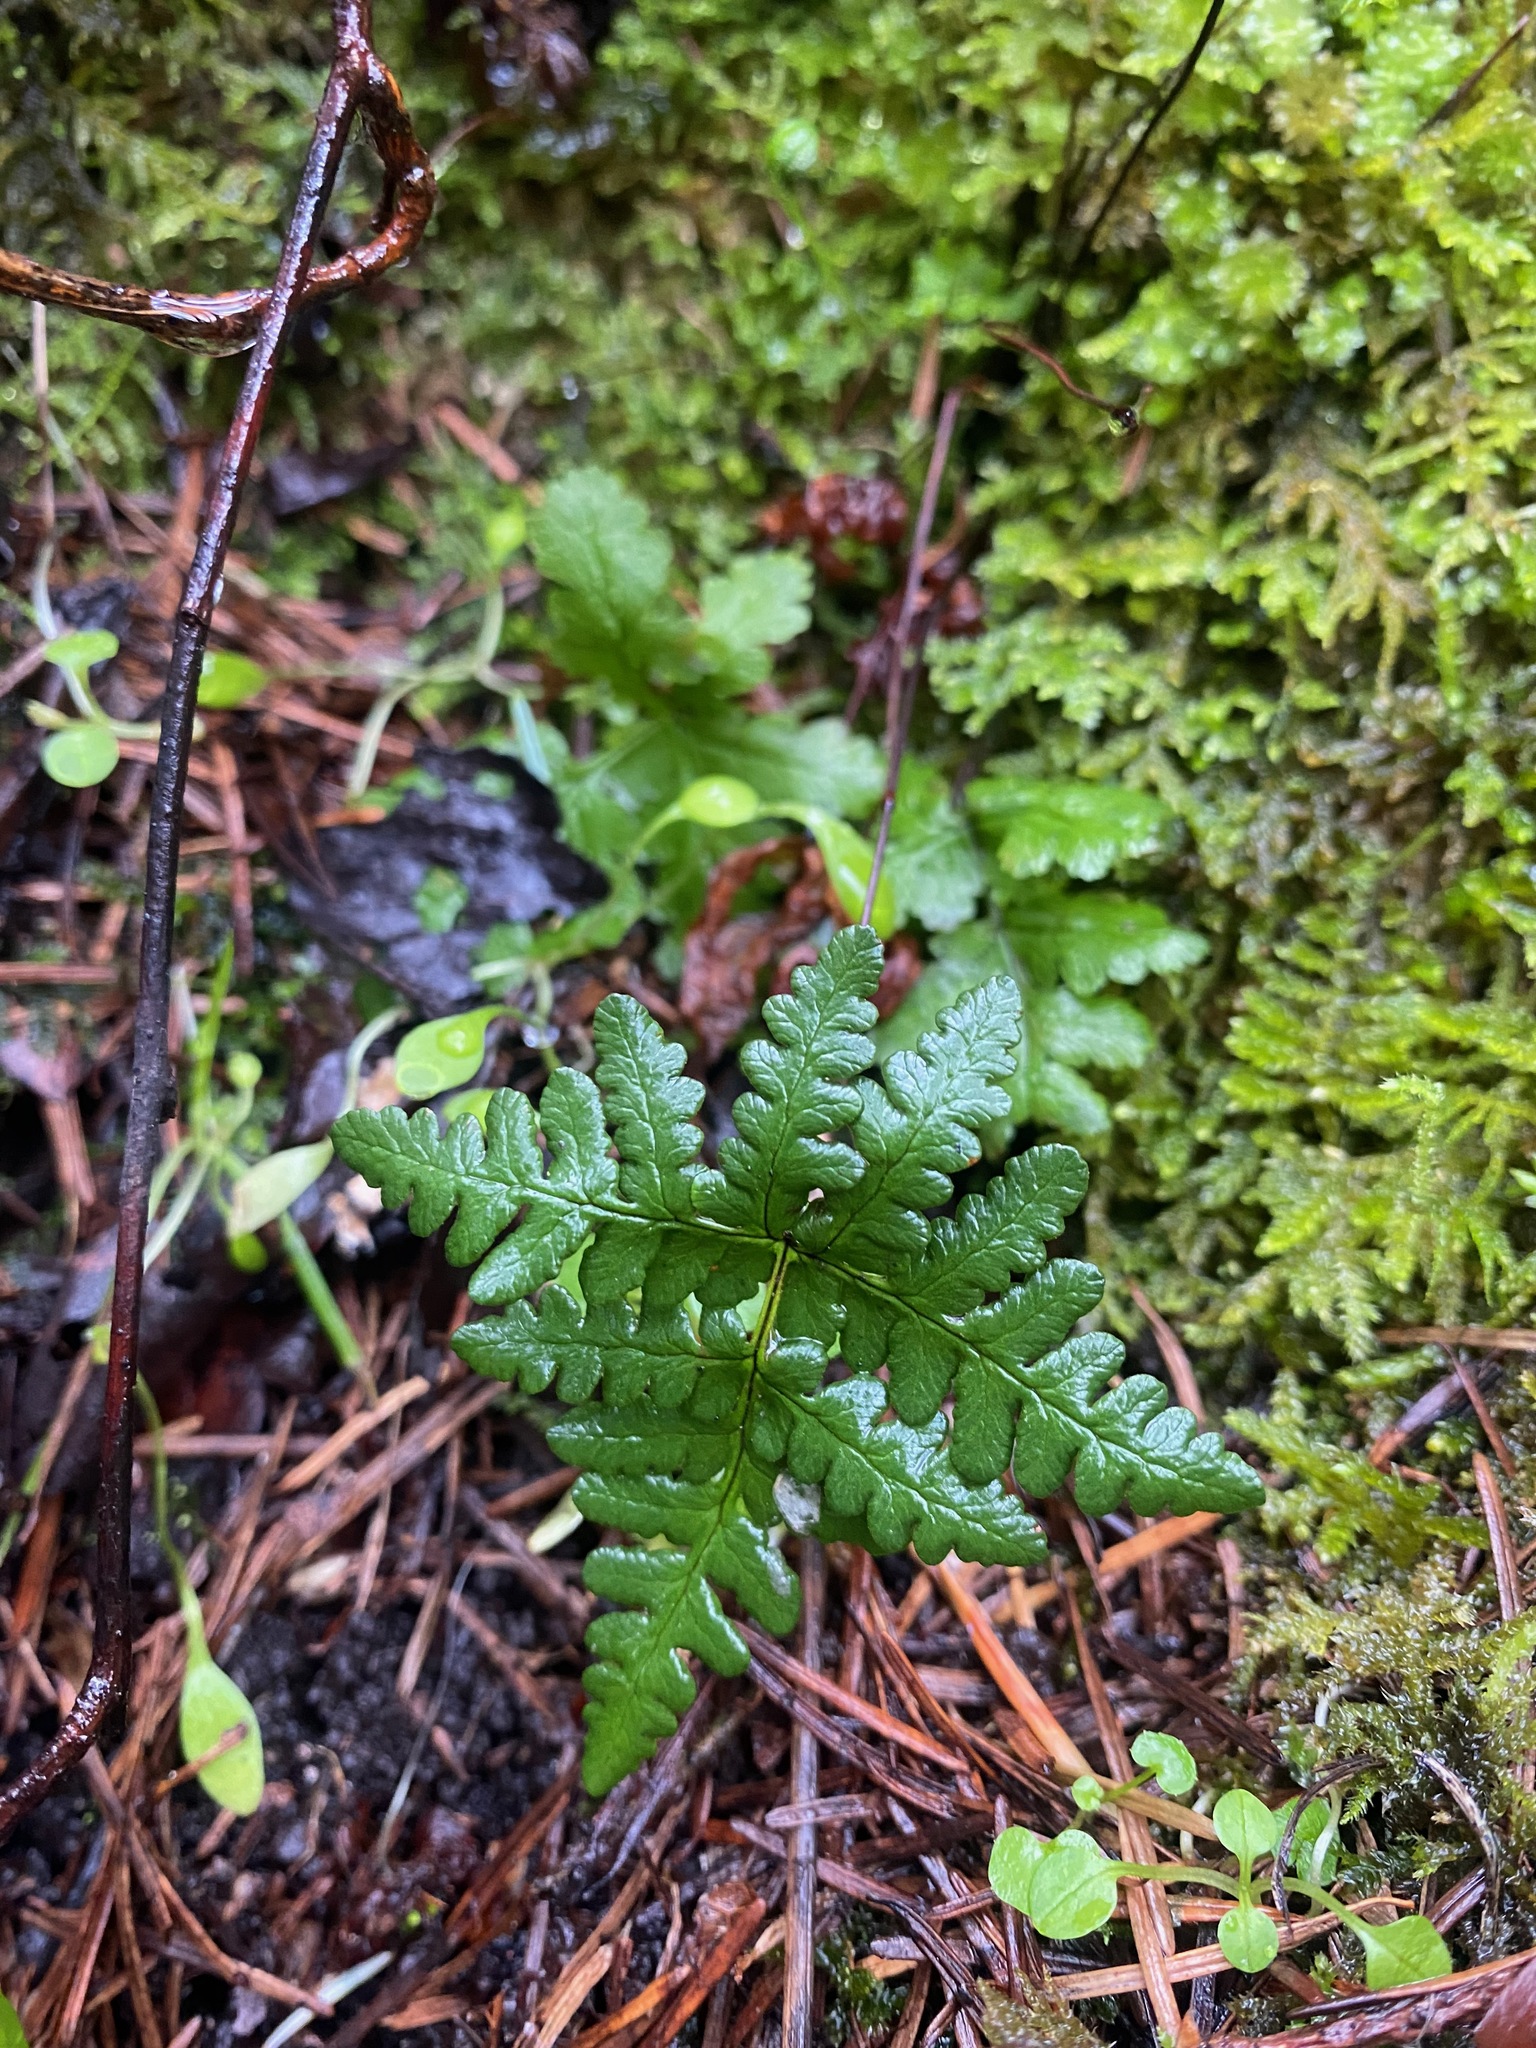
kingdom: Plantae
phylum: Tracheophyta
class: Polypodiopsida
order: Polypodiales
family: Pteridaceae
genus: Pentagramma
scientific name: Pentagramma triangularis
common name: Gold fern
